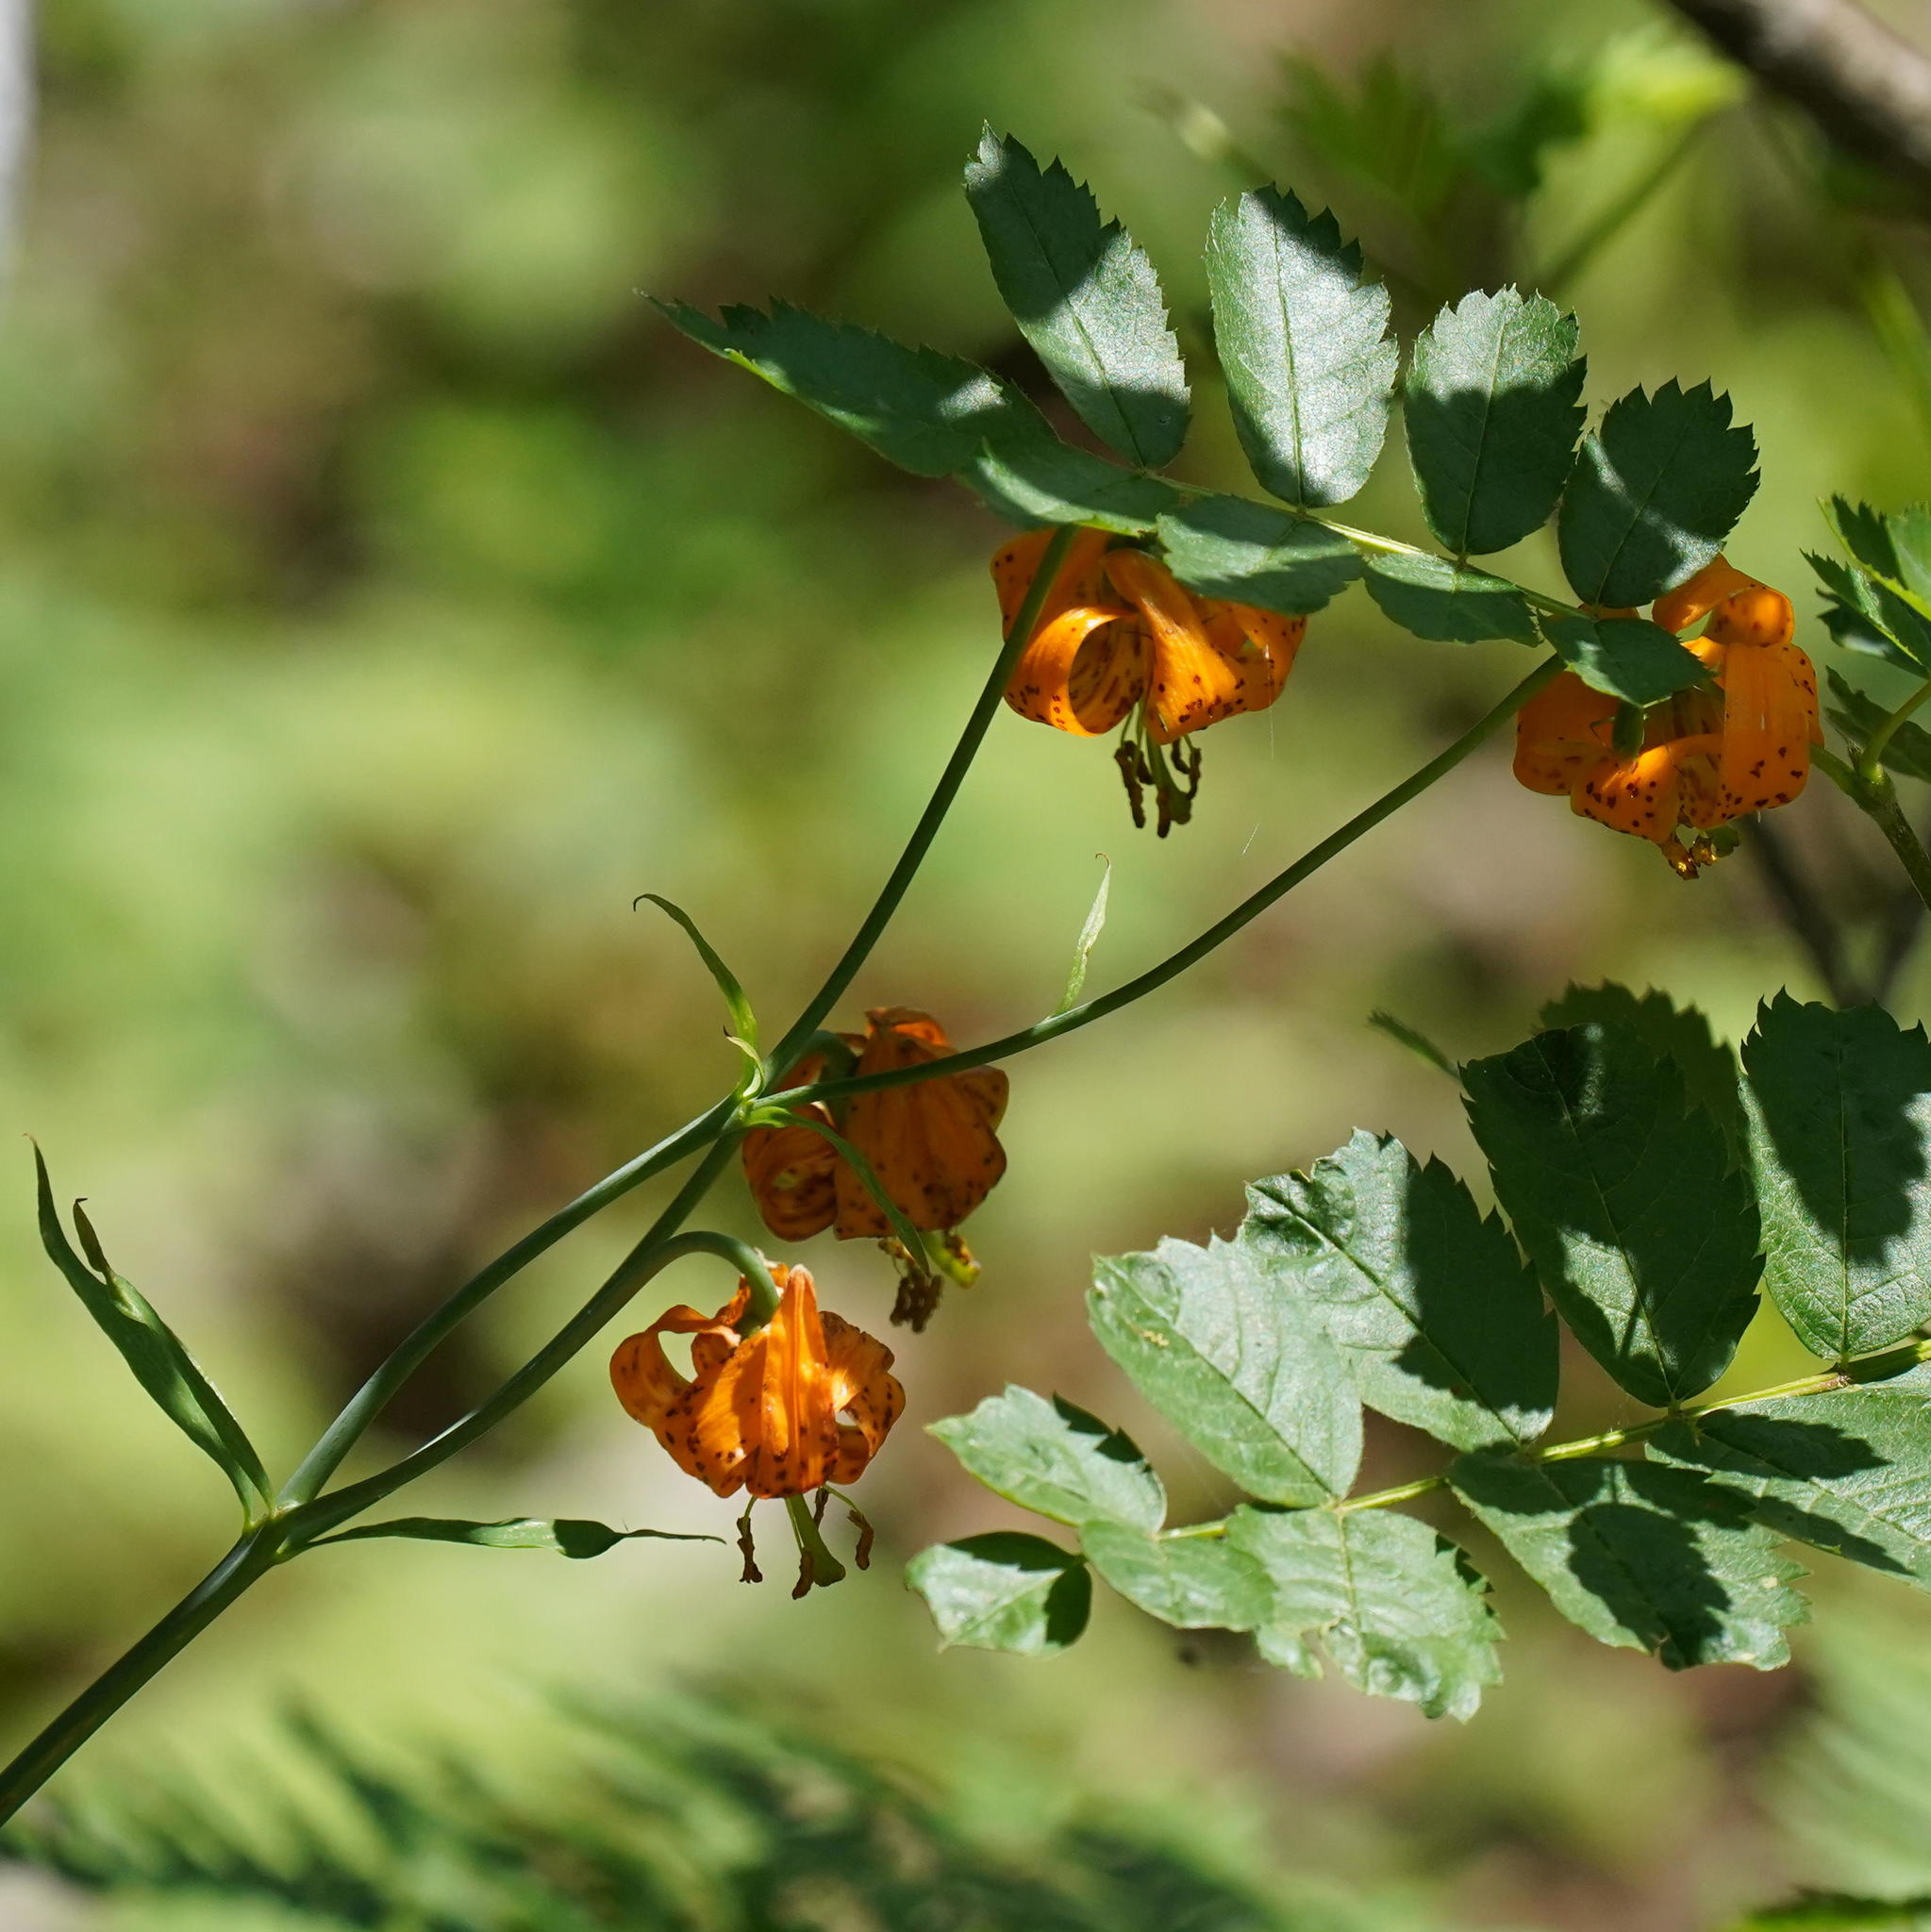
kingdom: Plantae
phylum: Tracheophyta
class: Liliopsida
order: Liliales
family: Liliaceae
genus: Lilium
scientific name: Lilium columbianum
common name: Columbia lily
